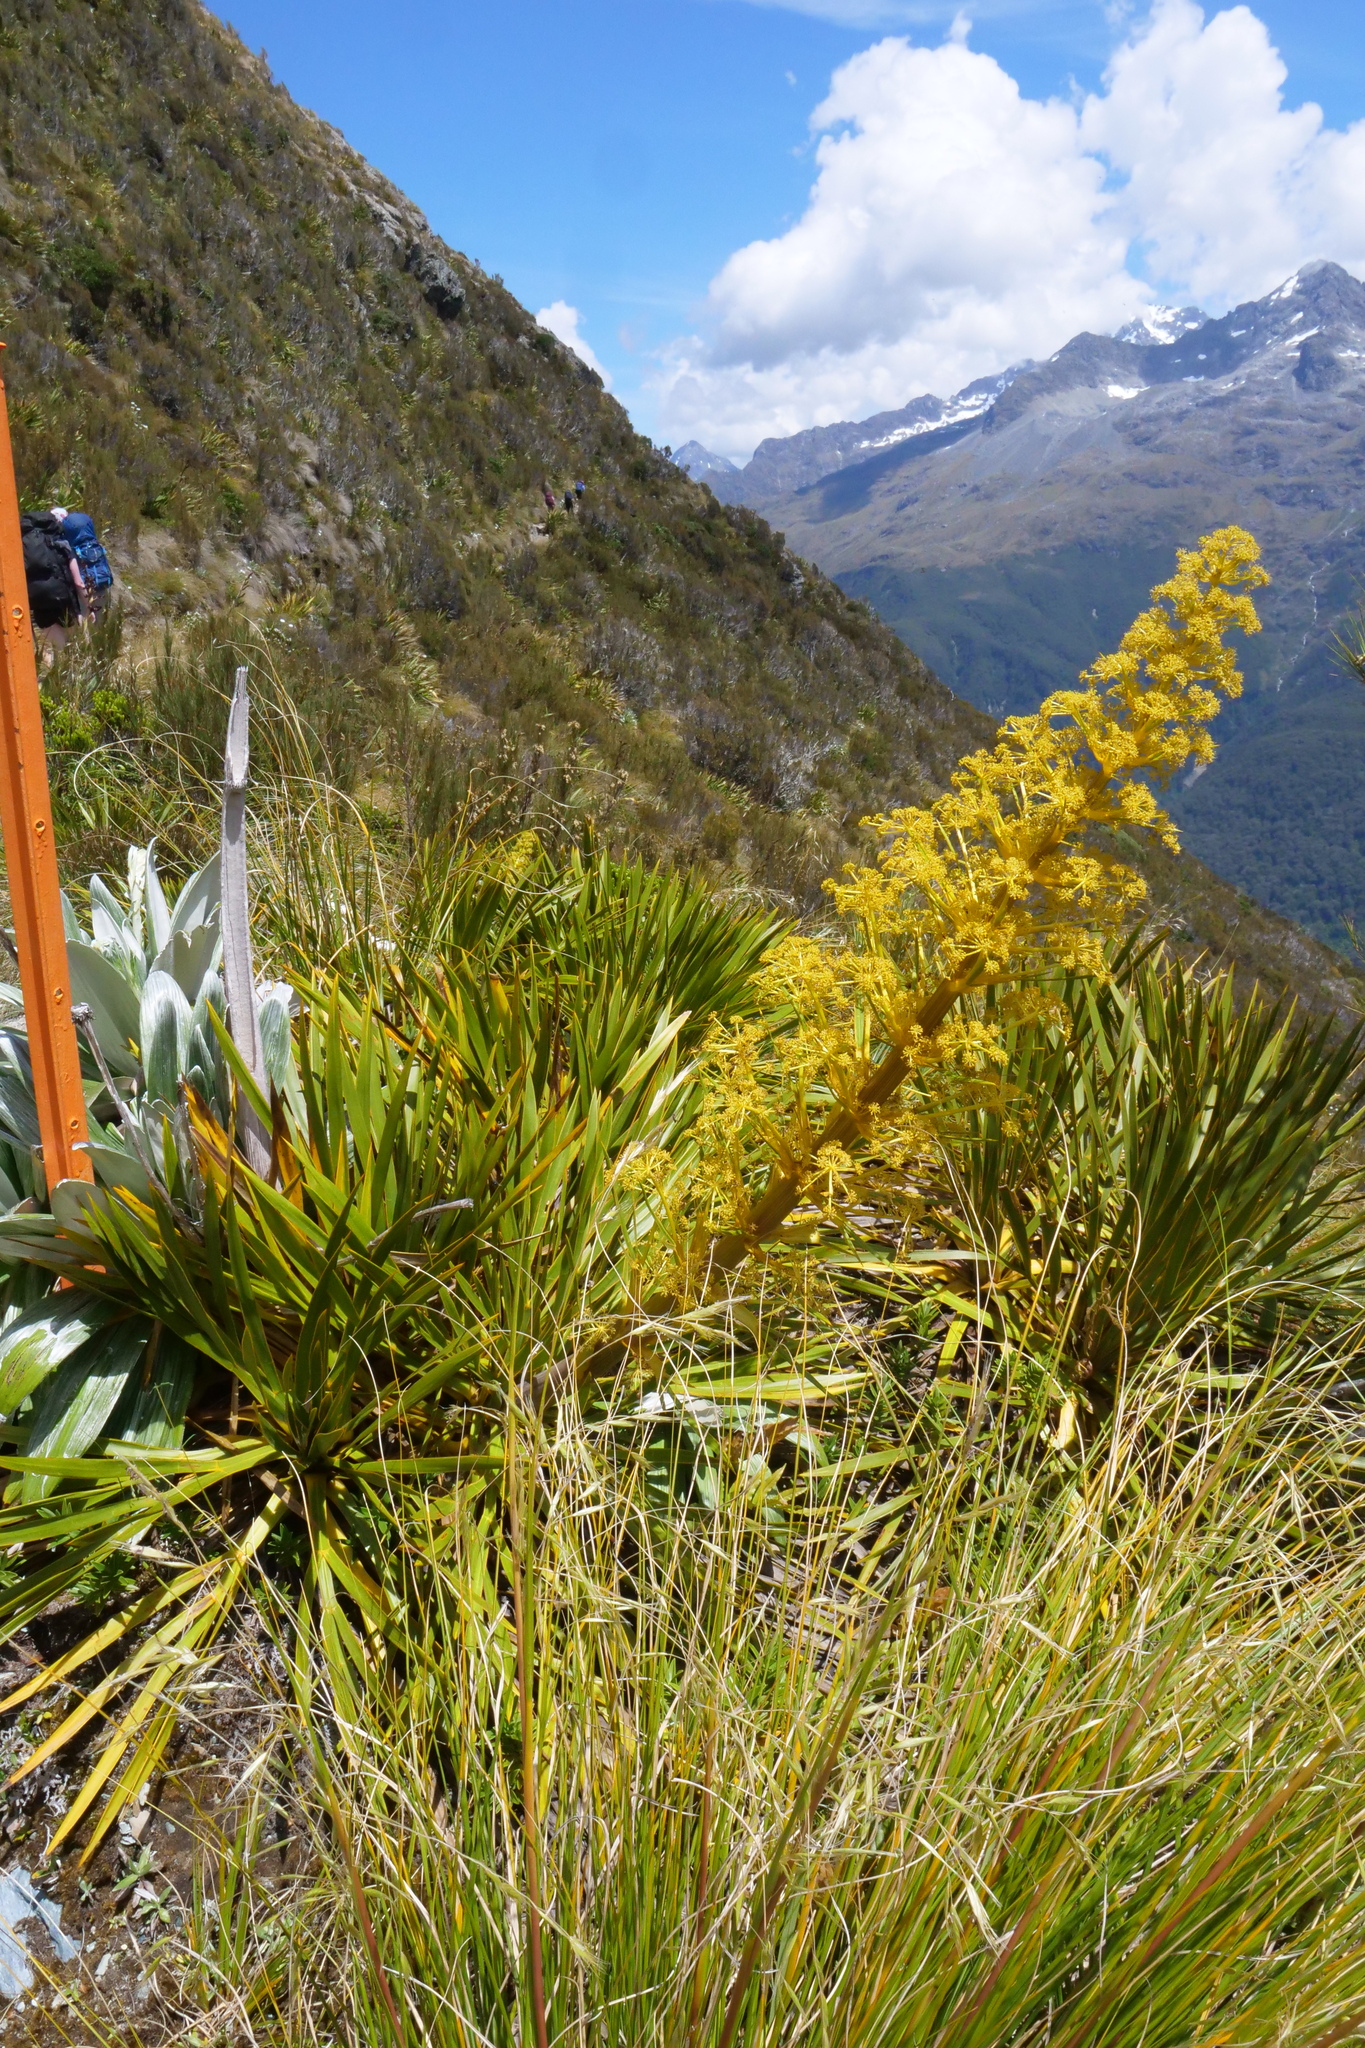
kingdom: Plantae
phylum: Tracheophyta
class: Magnoliopsida
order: Apiales
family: Apiaceae
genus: Aciphylla
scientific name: Aciphylla horrida
